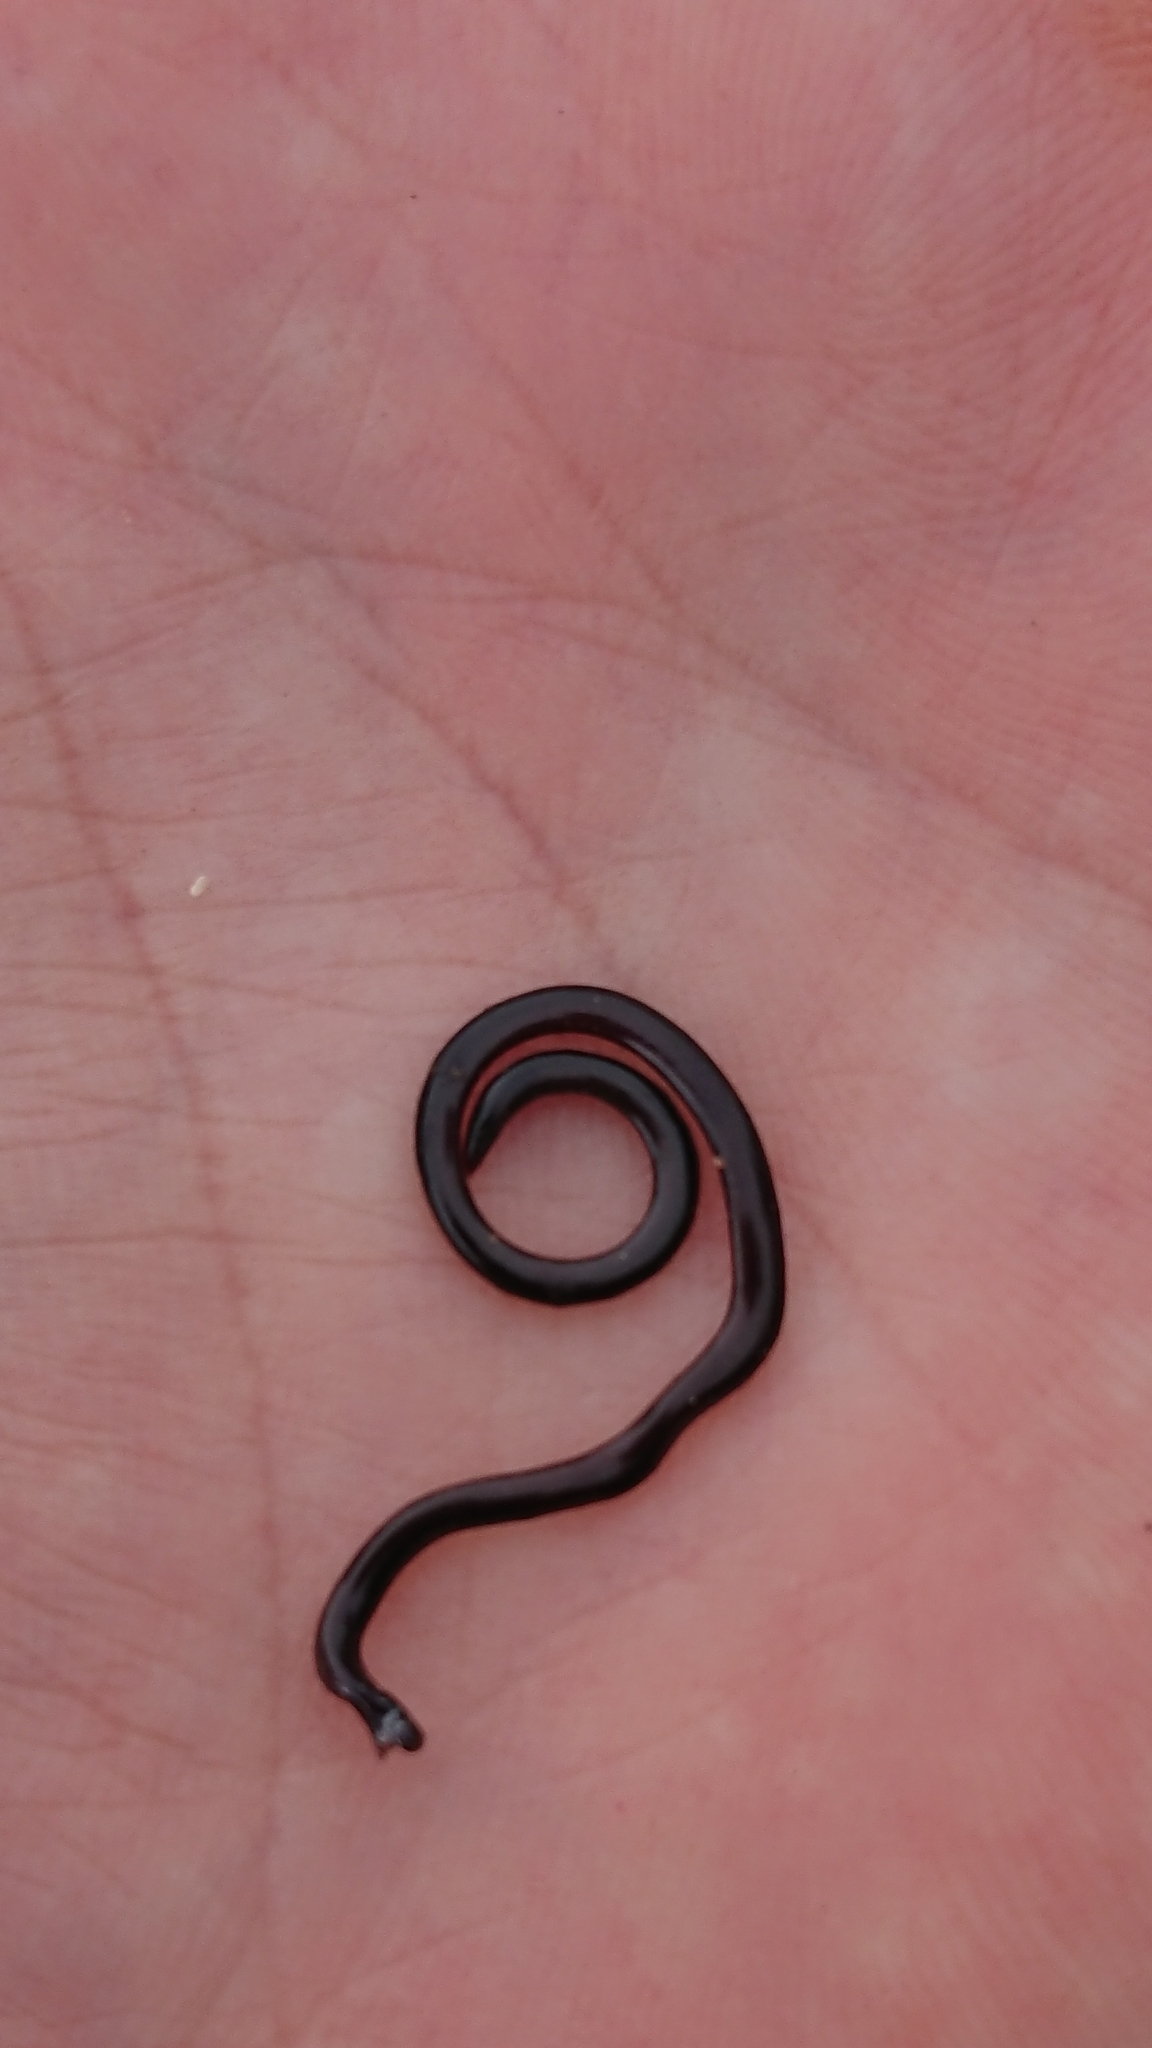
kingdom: Animalia
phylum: Chordata
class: Squamata
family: Typhlopidae
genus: Indotyphlops
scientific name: Indotyphlops braminus
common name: Brahminy blindsnake
